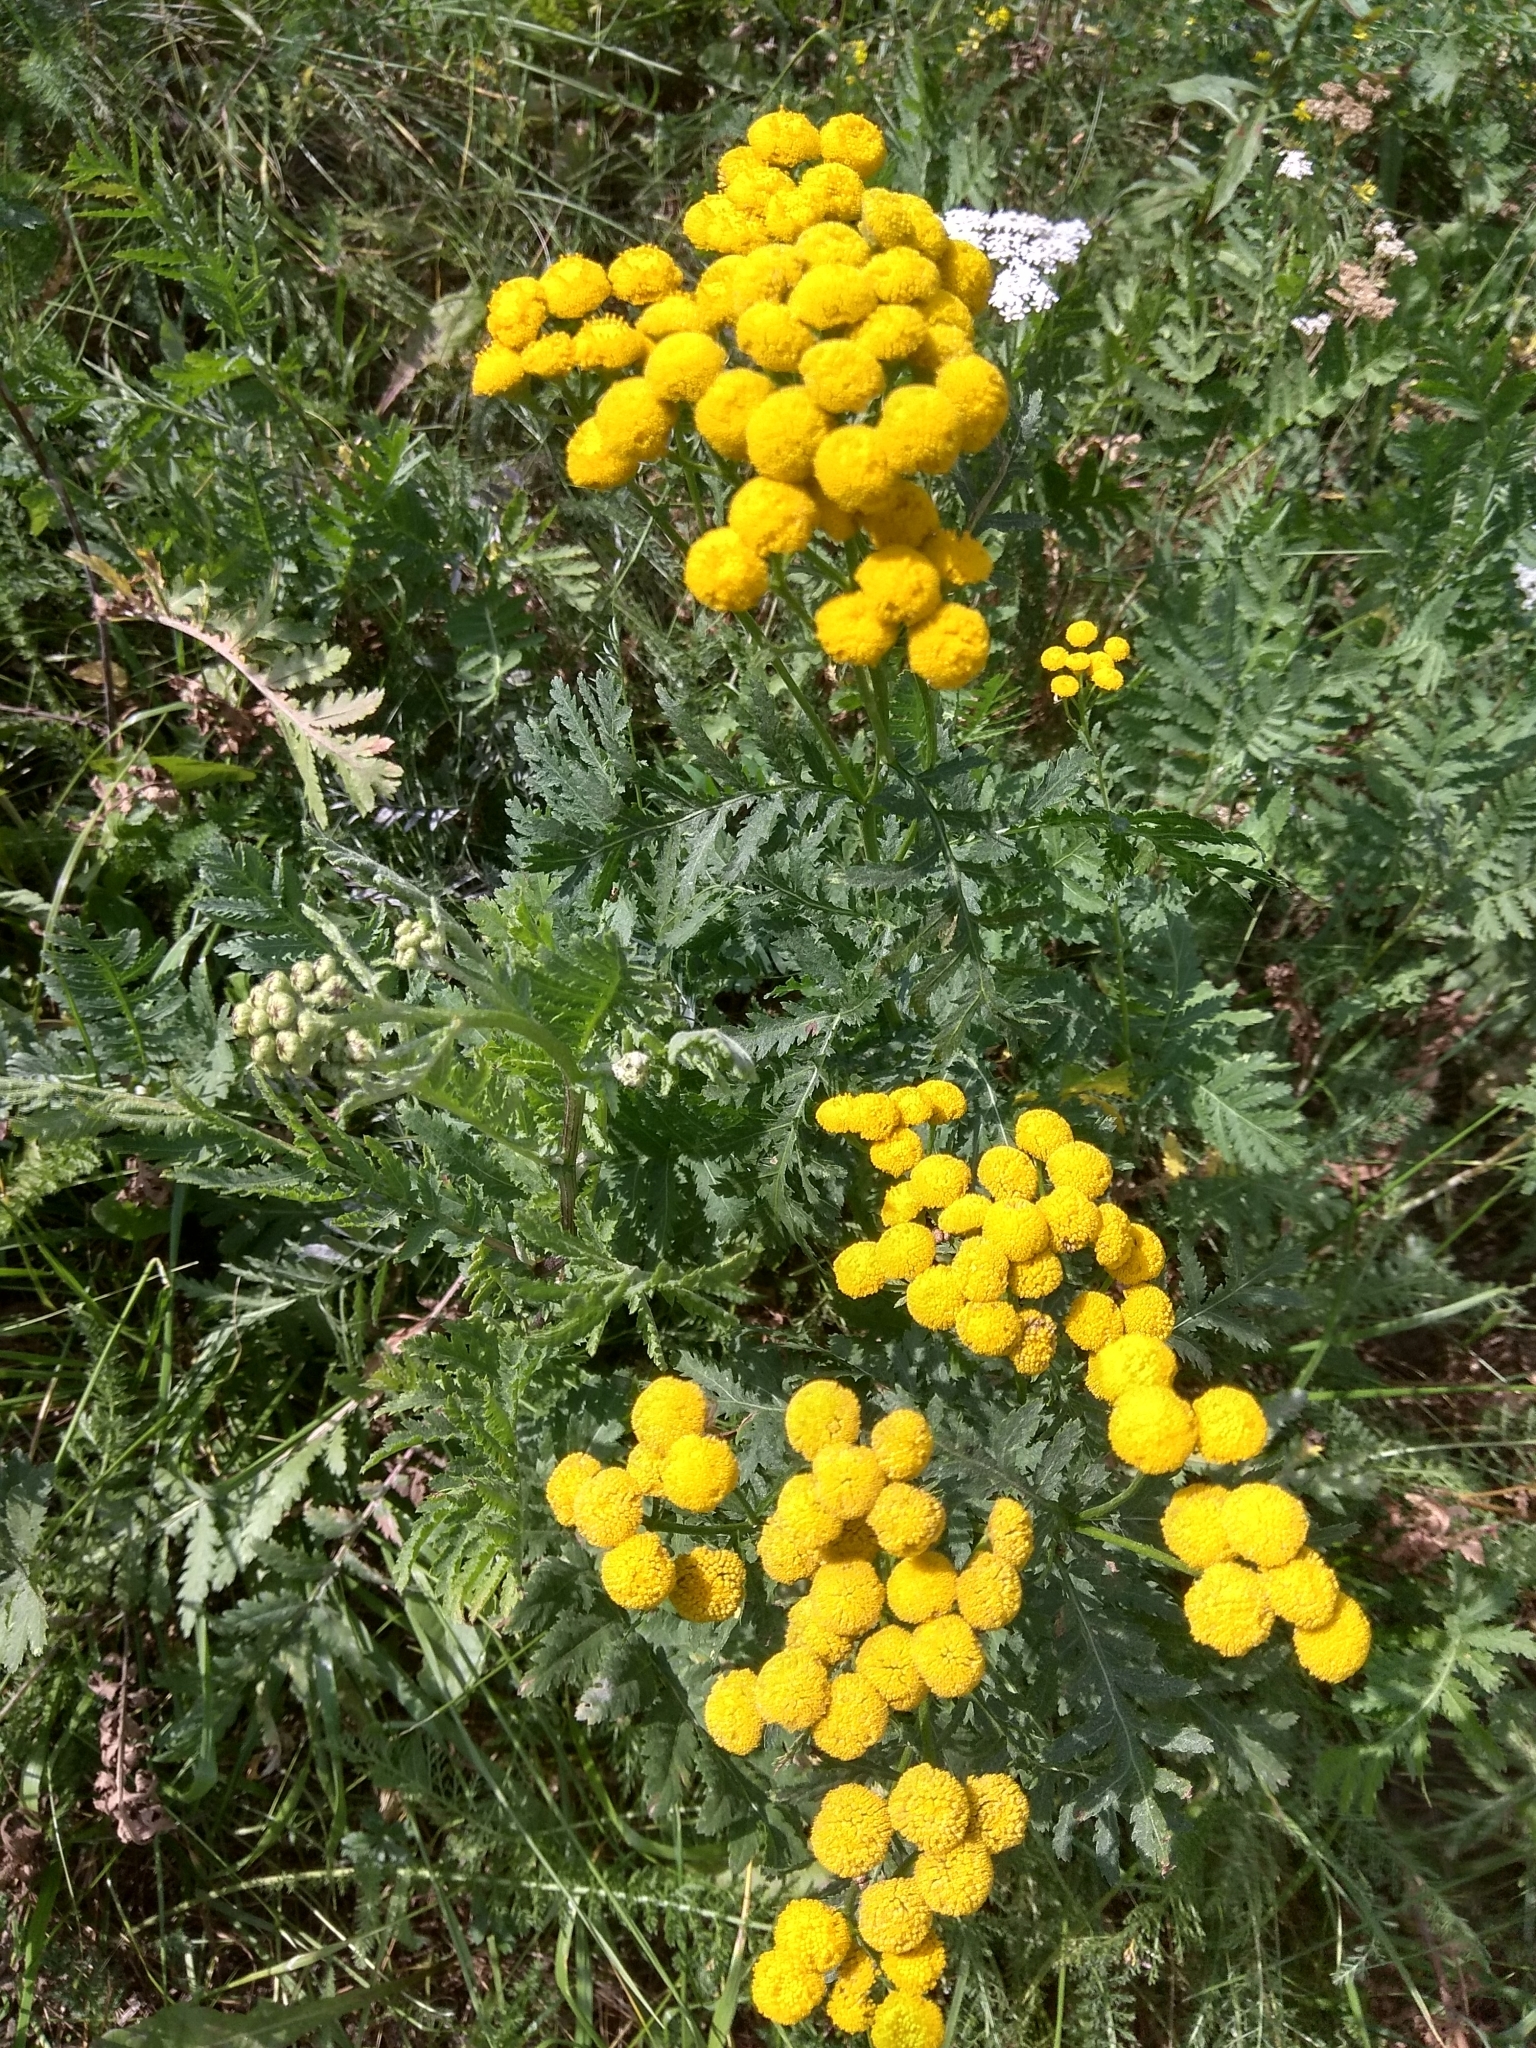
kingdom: Plantae
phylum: Tracheophyta
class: Magnoliopsida
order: Asterales
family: Asteraceae
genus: Tanacetum
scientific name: Tanacetum vulgare
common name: Common tansy
